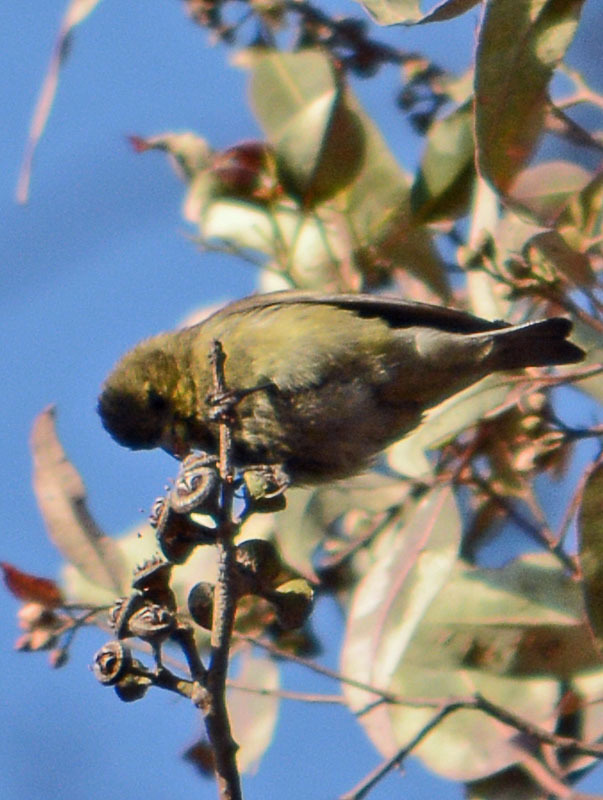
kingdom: Animalia
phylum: Chordata
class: Aves
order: Passeriformes
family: Fringillidae
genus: Spinus
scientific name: Spinus psaltria
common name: Lesser goldfinch
